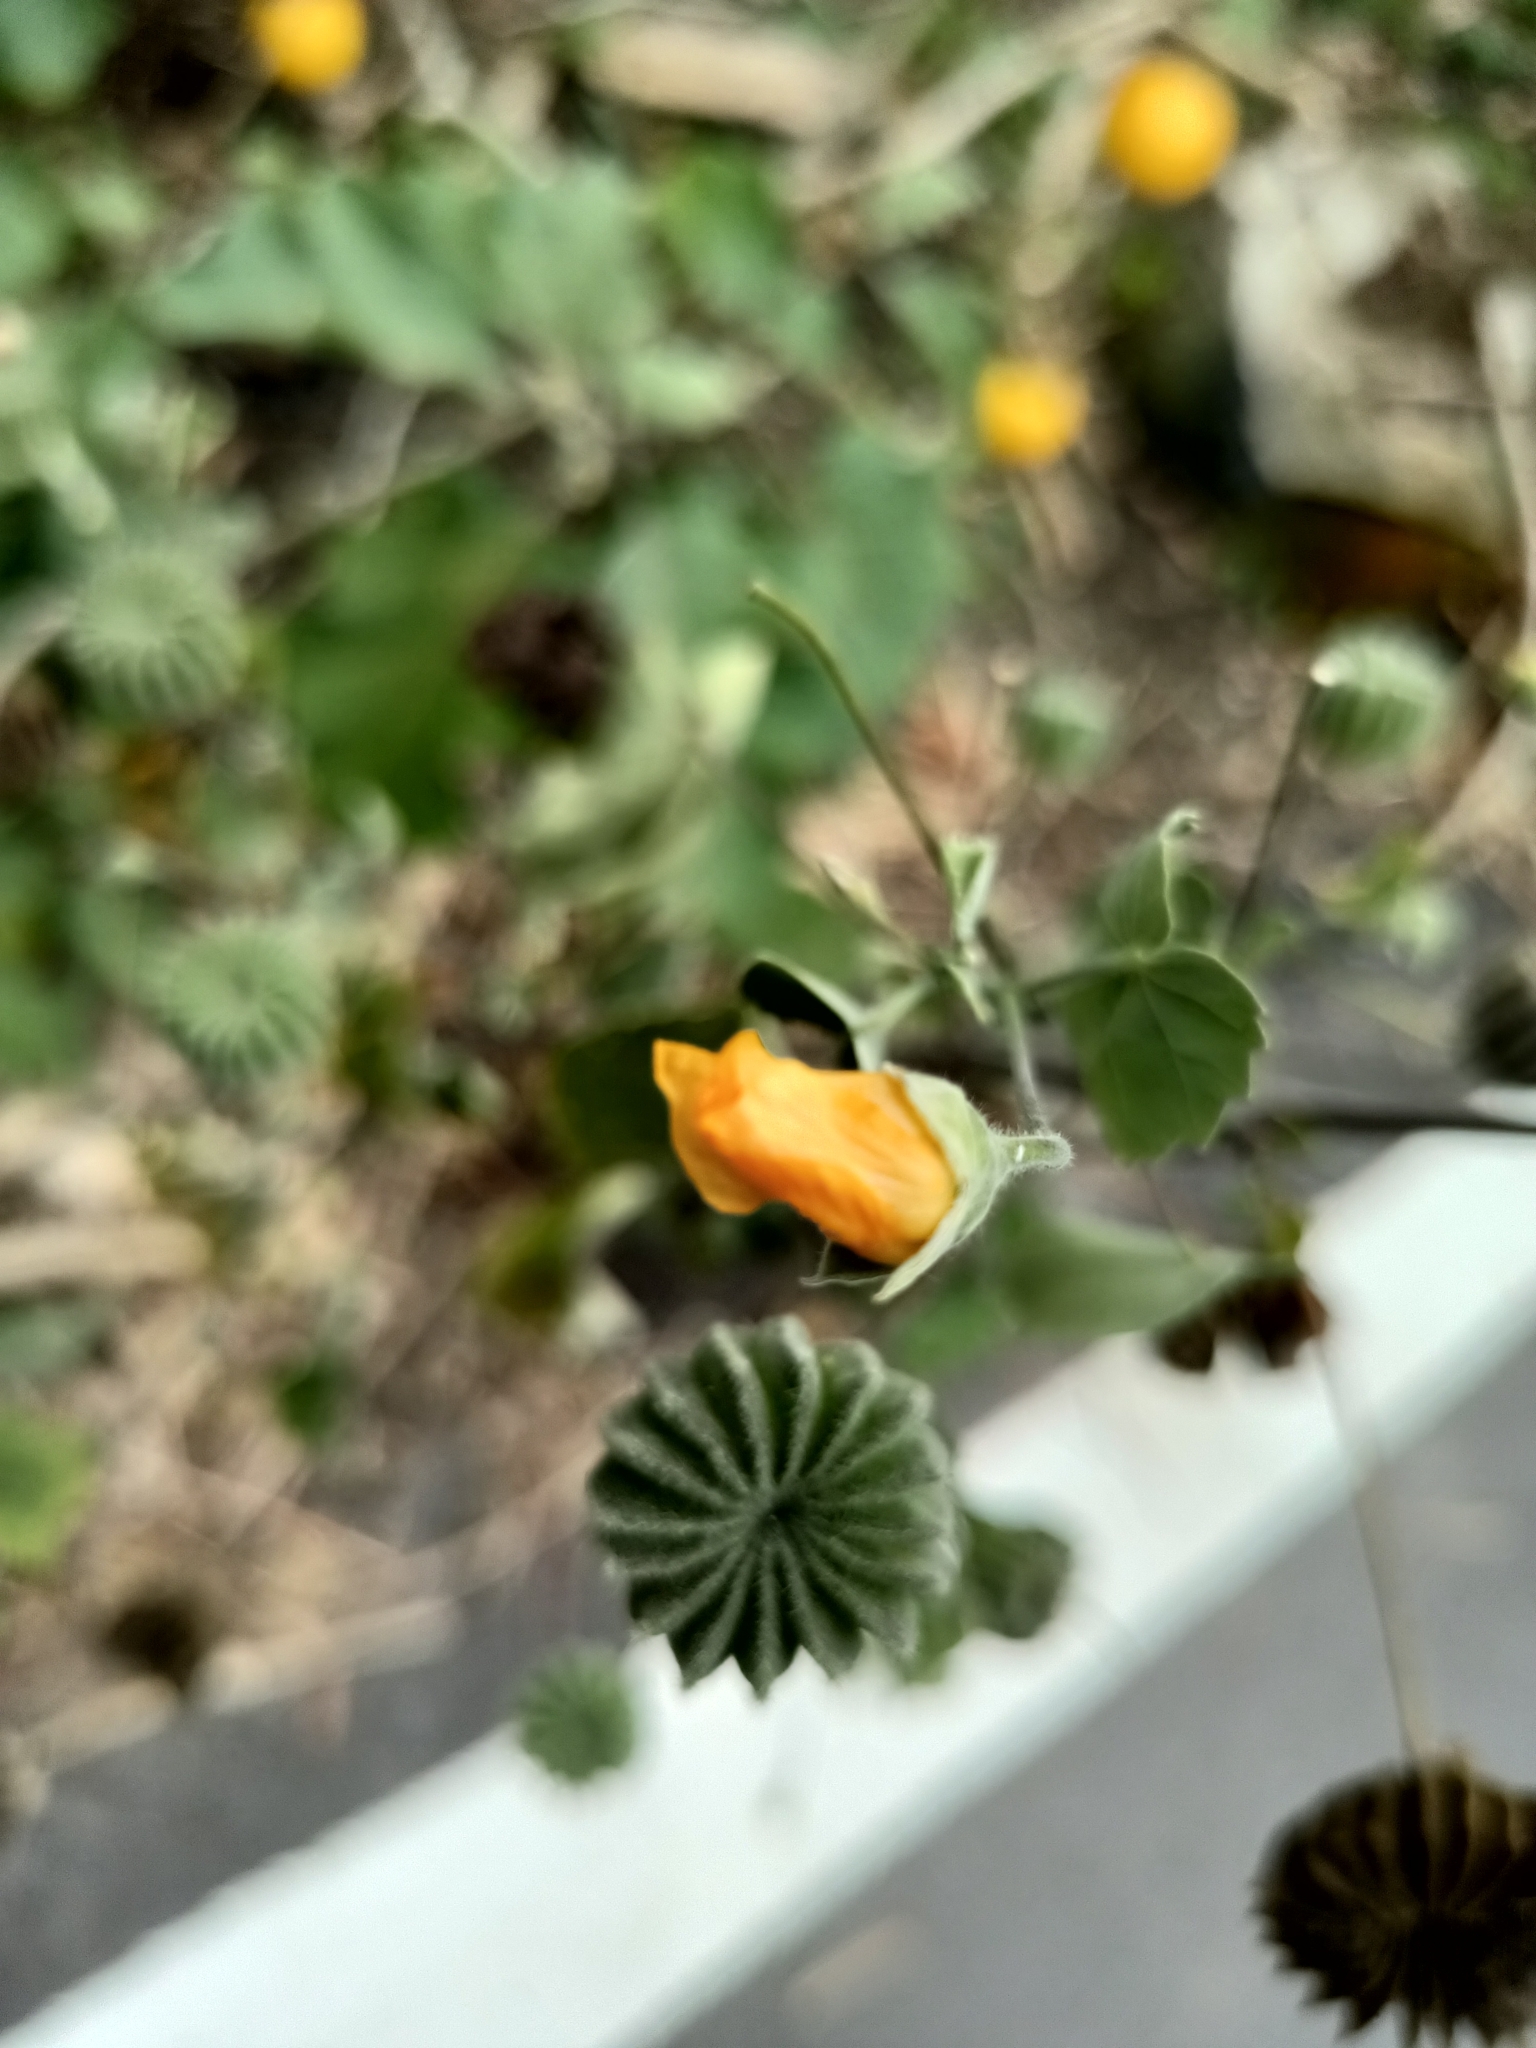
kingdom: Plantae
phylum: Tracheophyta
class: Magnoliopsida
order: Malvales
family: Malvaceae
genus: Abutilon
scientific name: Abutilon indicum
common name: Indian abutilon
